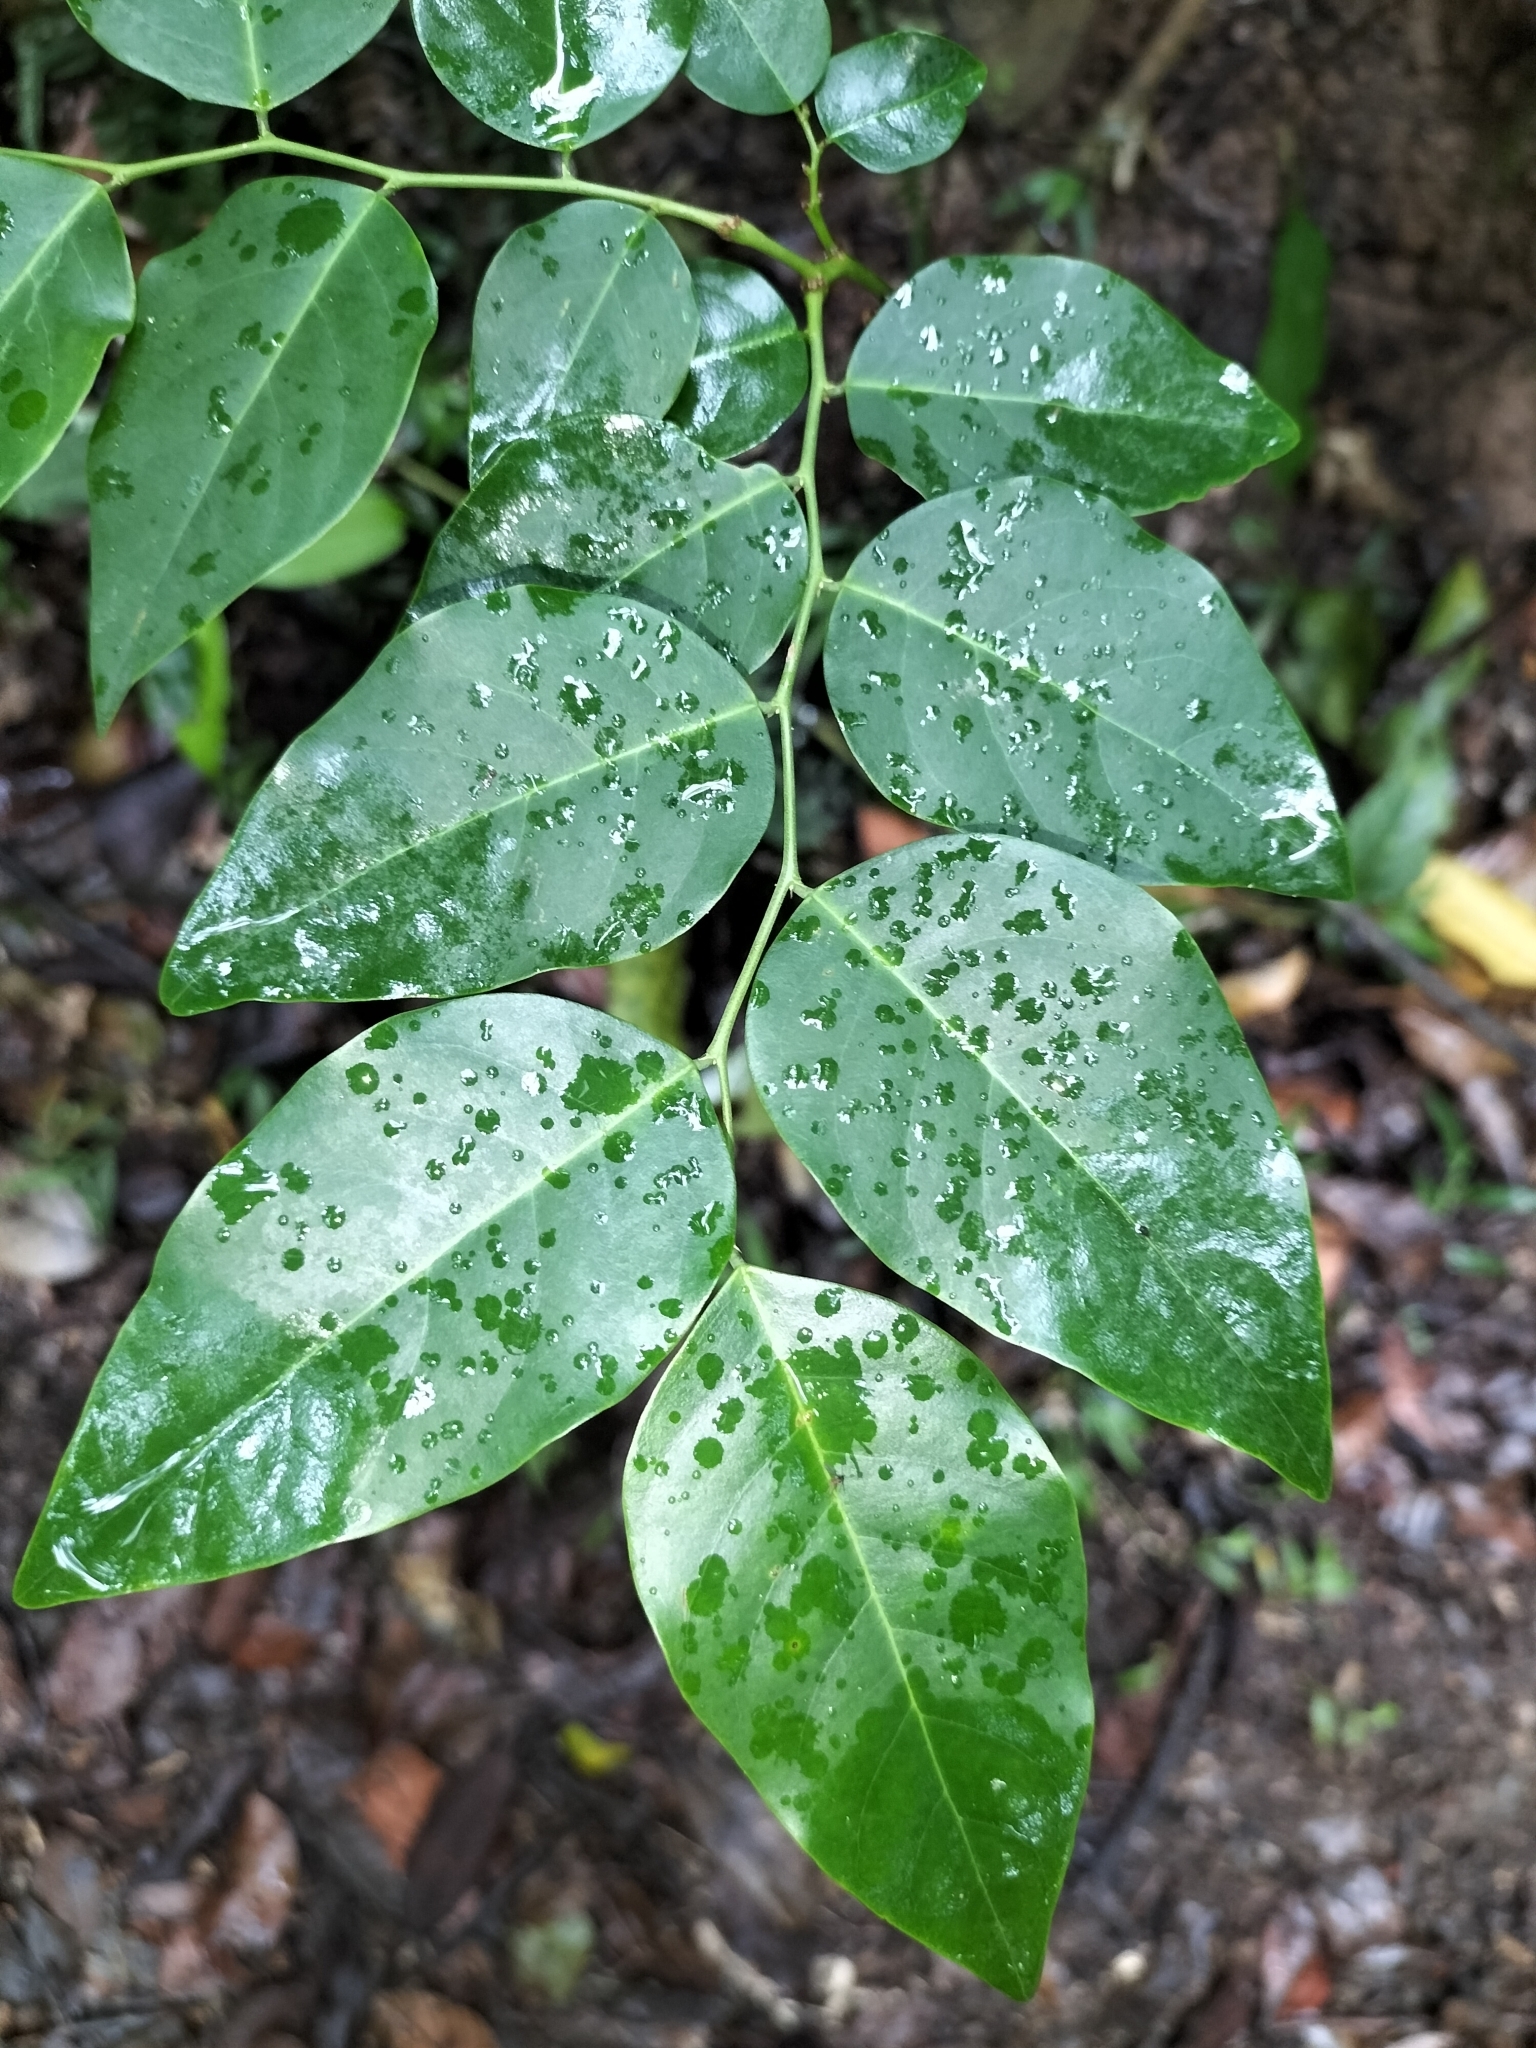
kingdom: Plantae
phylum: Tracheophyta
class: Magnoliopsida
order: Malpighiales
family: Phyllanthaceae
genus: Breynia
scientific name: Breynia cernua
